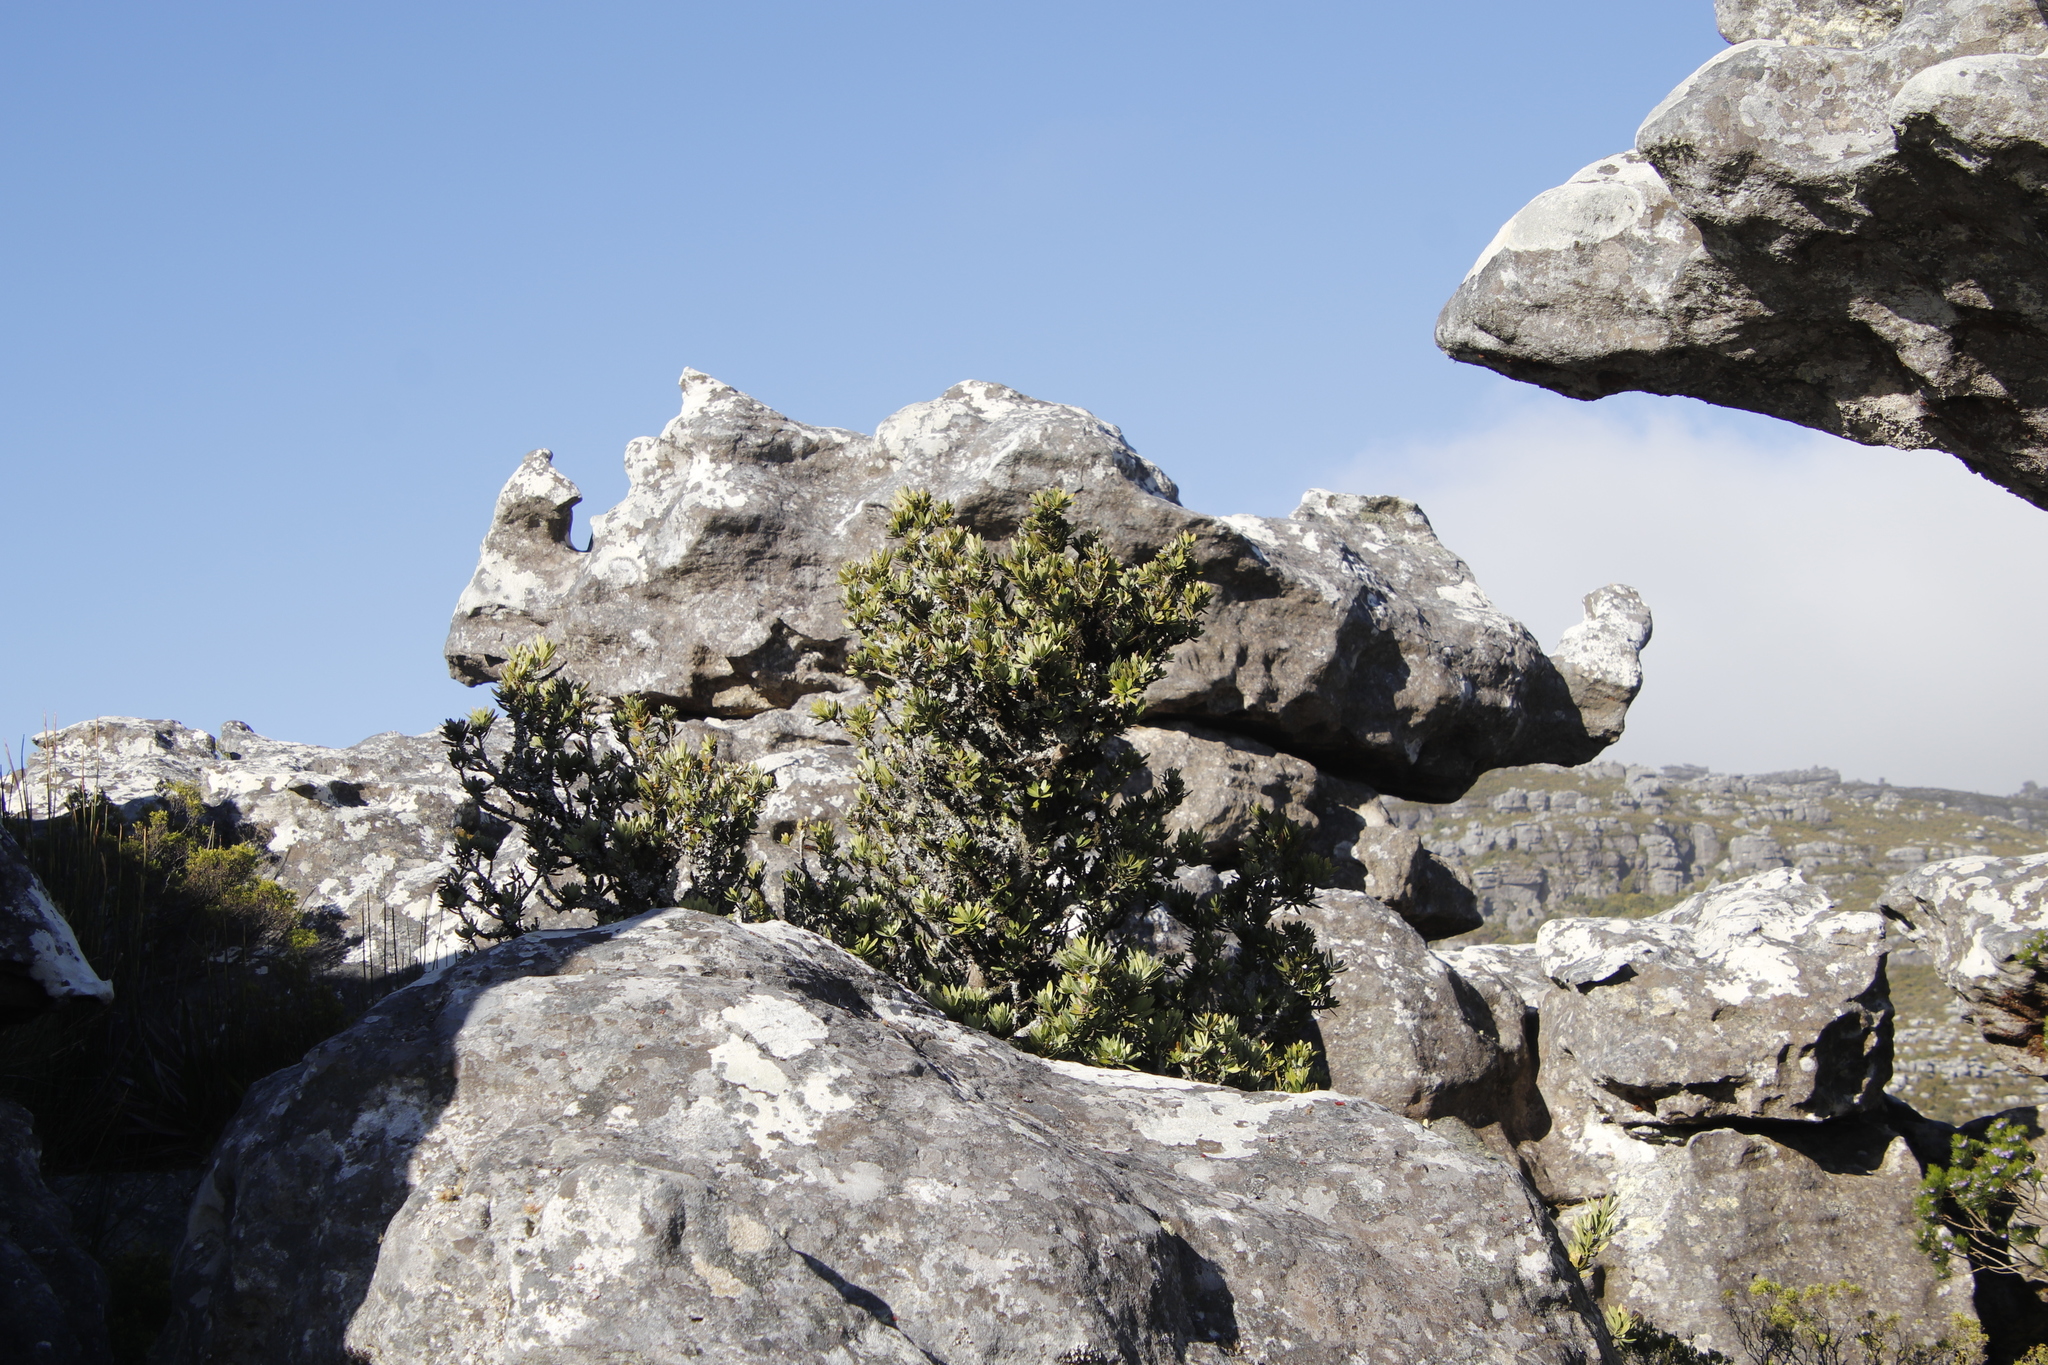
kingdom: Plantae
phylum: Tracheophyta
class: Pinopsida
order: Pinales
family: Podocarpaceae
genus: Podocarpus
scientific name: Podocarpus latifolius
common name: True yellowwood
